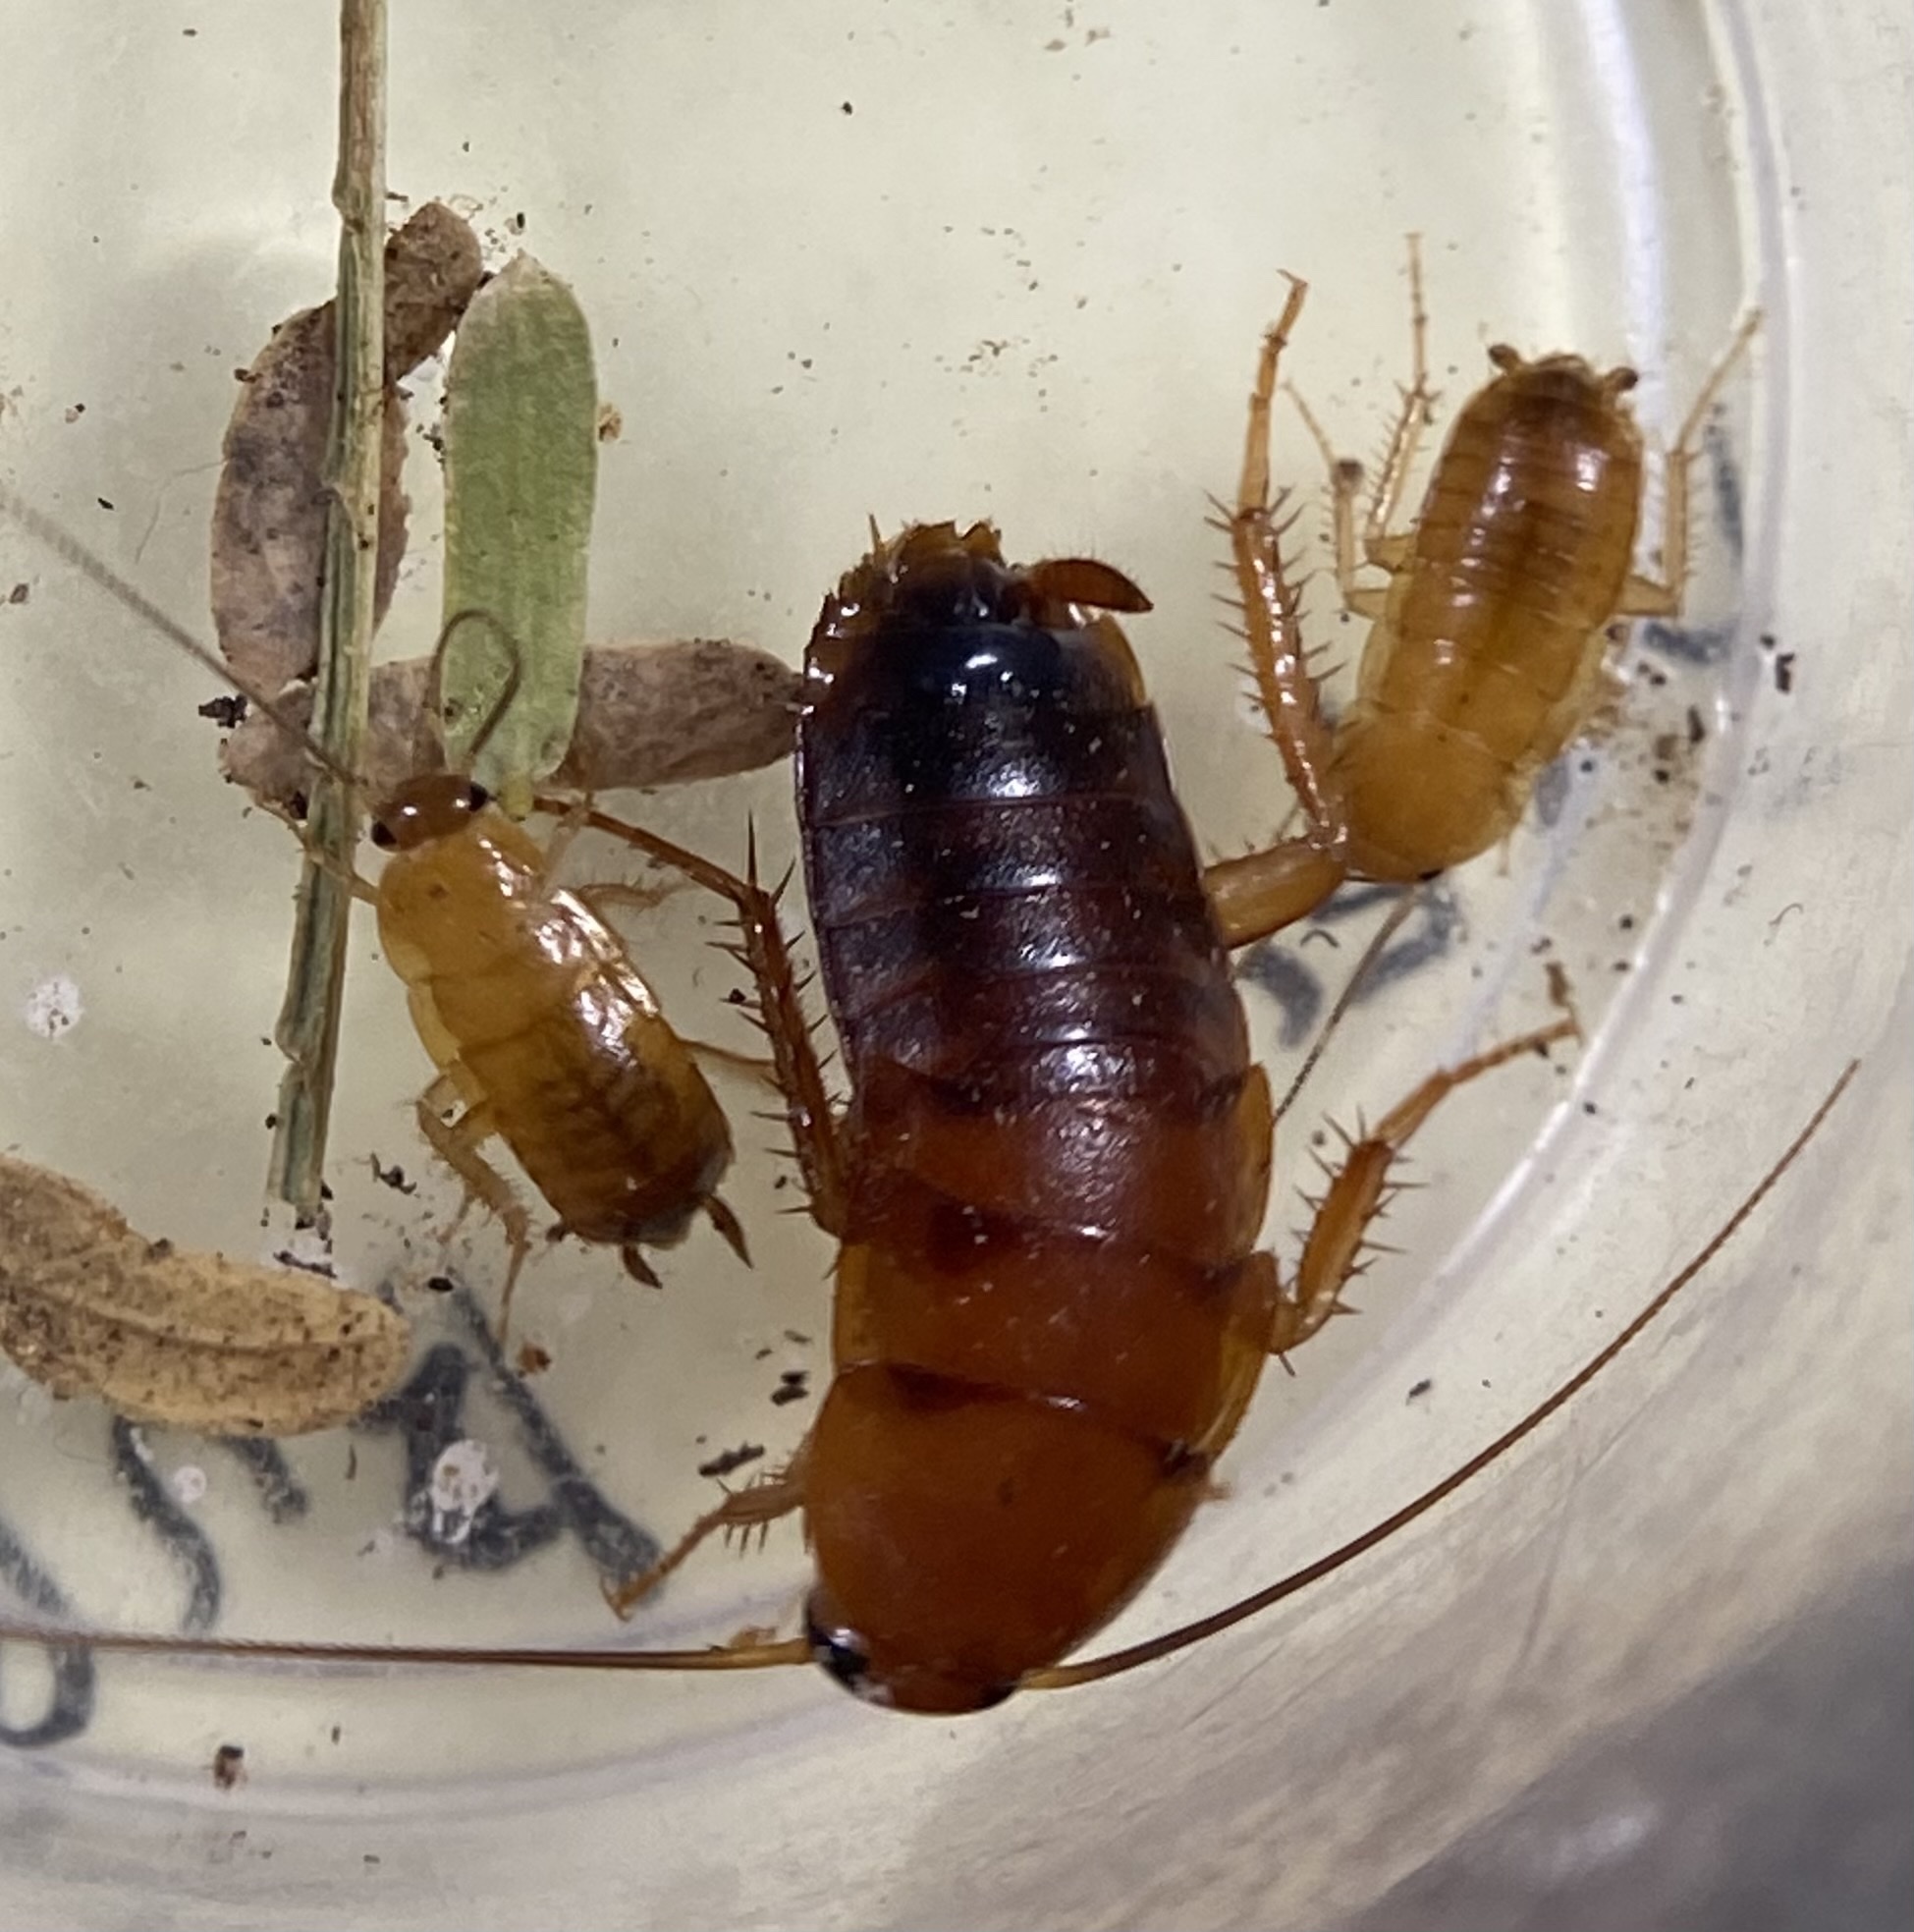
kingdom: Animalia
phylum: Arthropoda
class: Insecta
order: Blattodea
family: Blattidae
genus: Periplaneta
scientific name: Periplaneta lateralis
